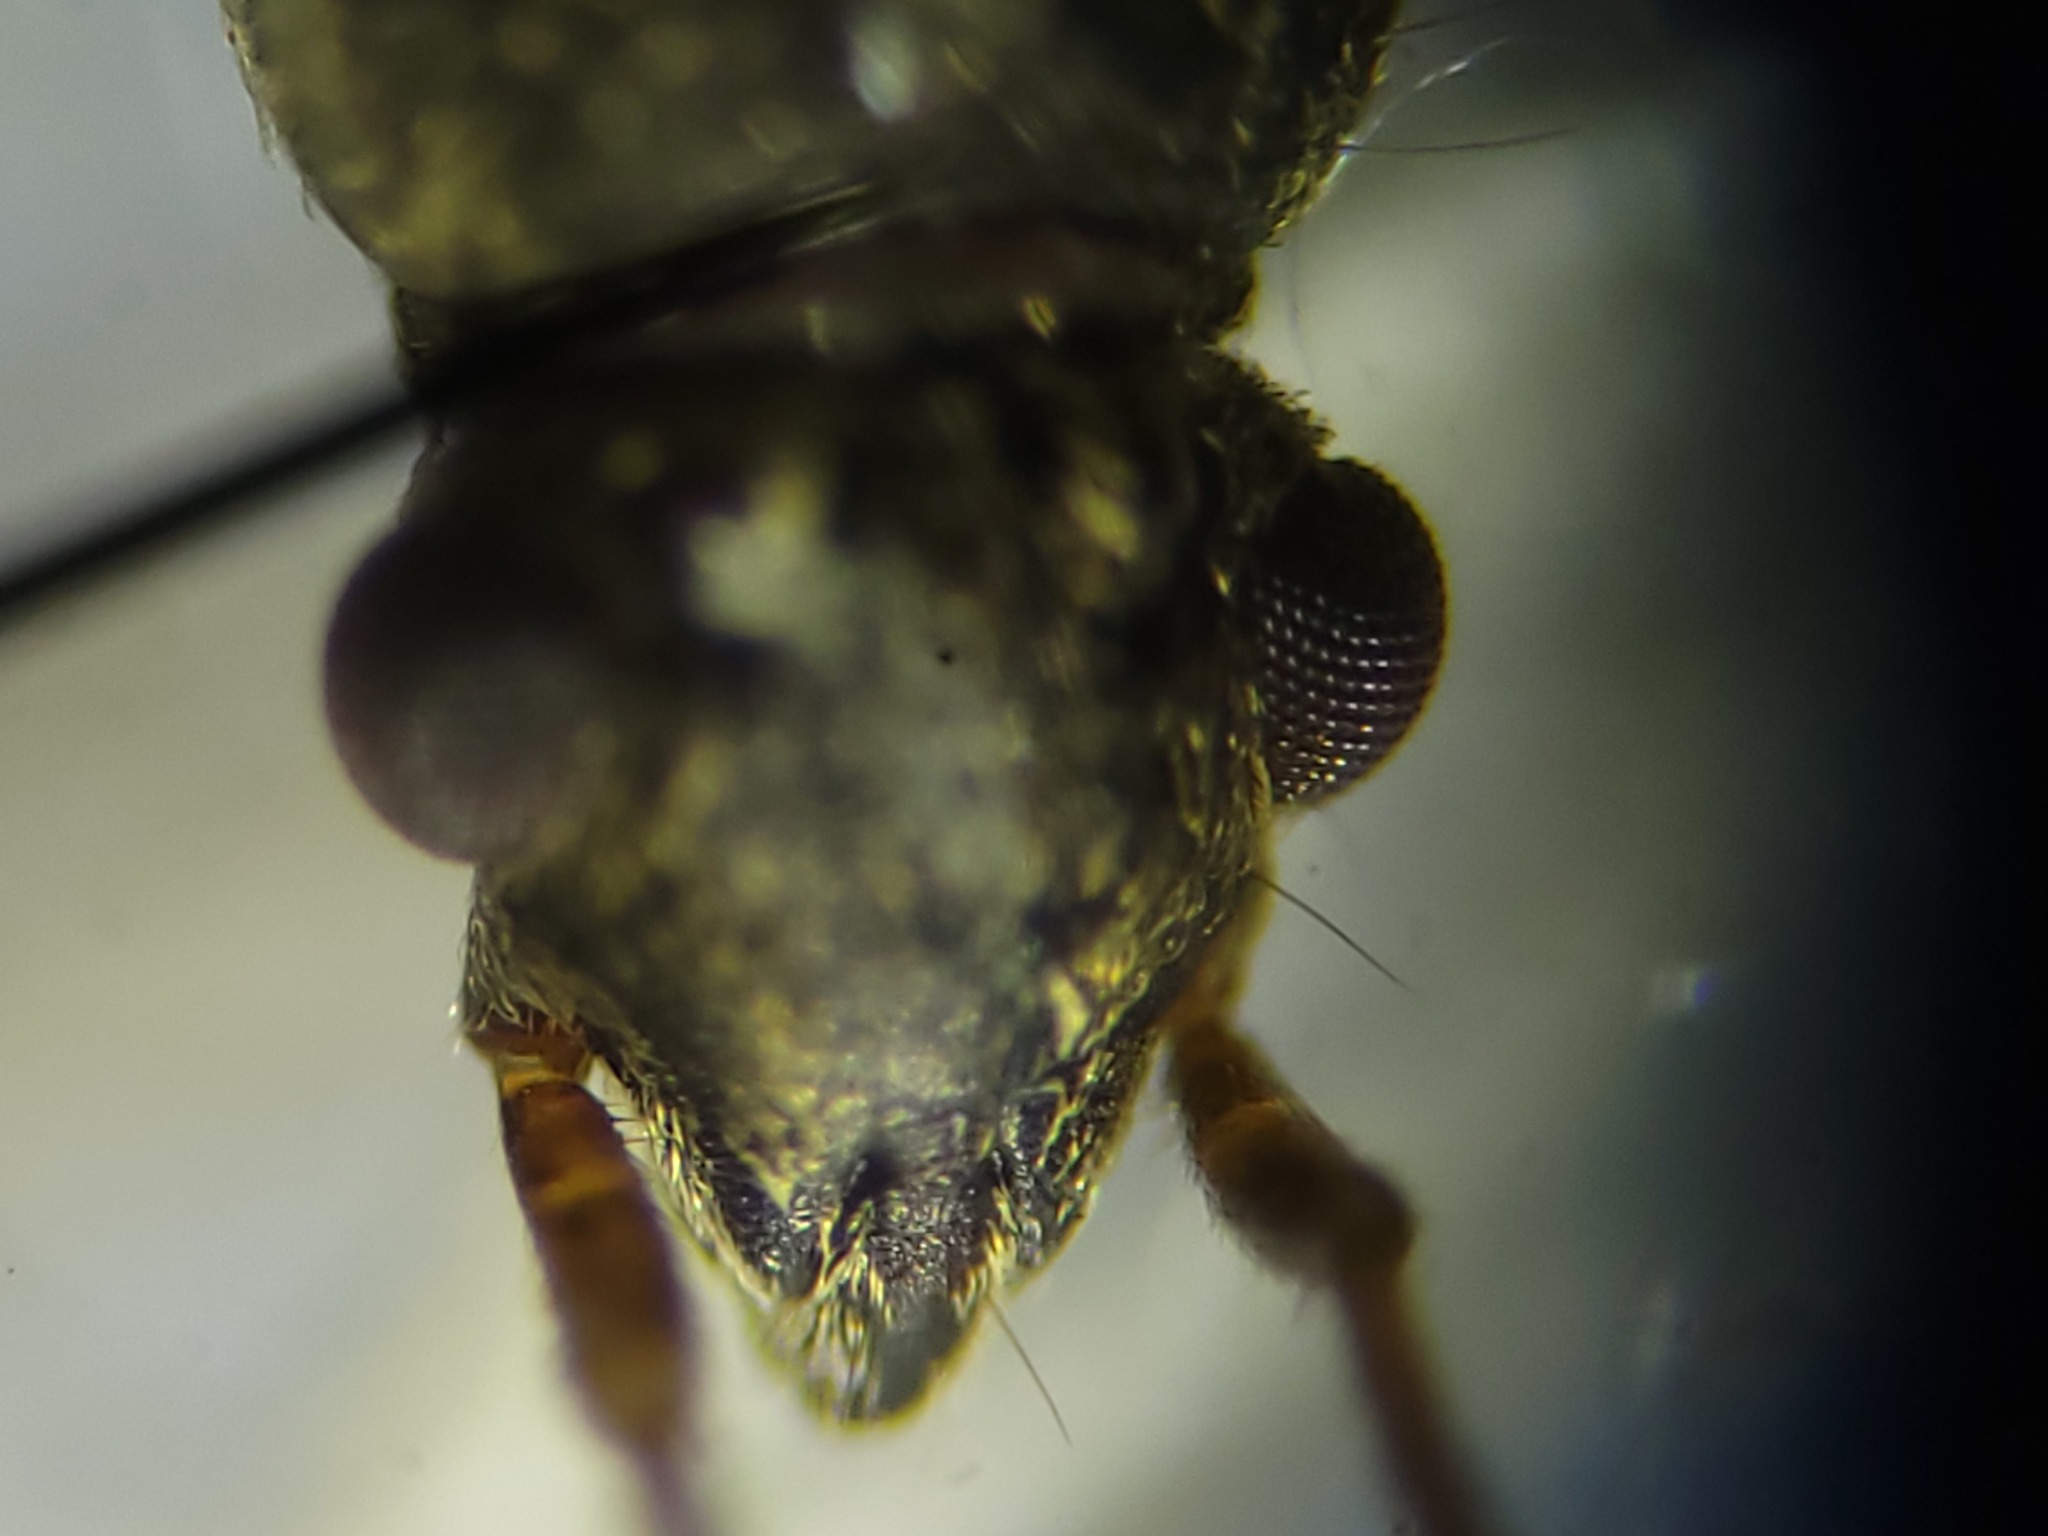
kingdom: Animalia
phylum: Arthropoda
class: Insecta
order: Hemiptera
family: Rhyparochromidae
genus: Ligyrocoris
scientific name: Ligyrocoris litigiosus
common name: Seed bug
